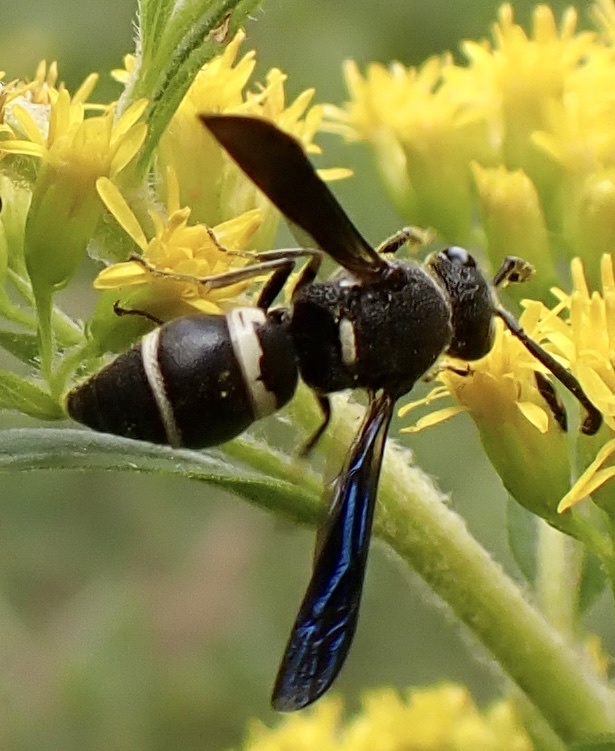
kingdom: Animalia
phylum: Arthropoda
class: Insecta
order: Hymenoptera
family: Eumenidae
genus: Euodynerus
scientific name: Euodynerus megaera
